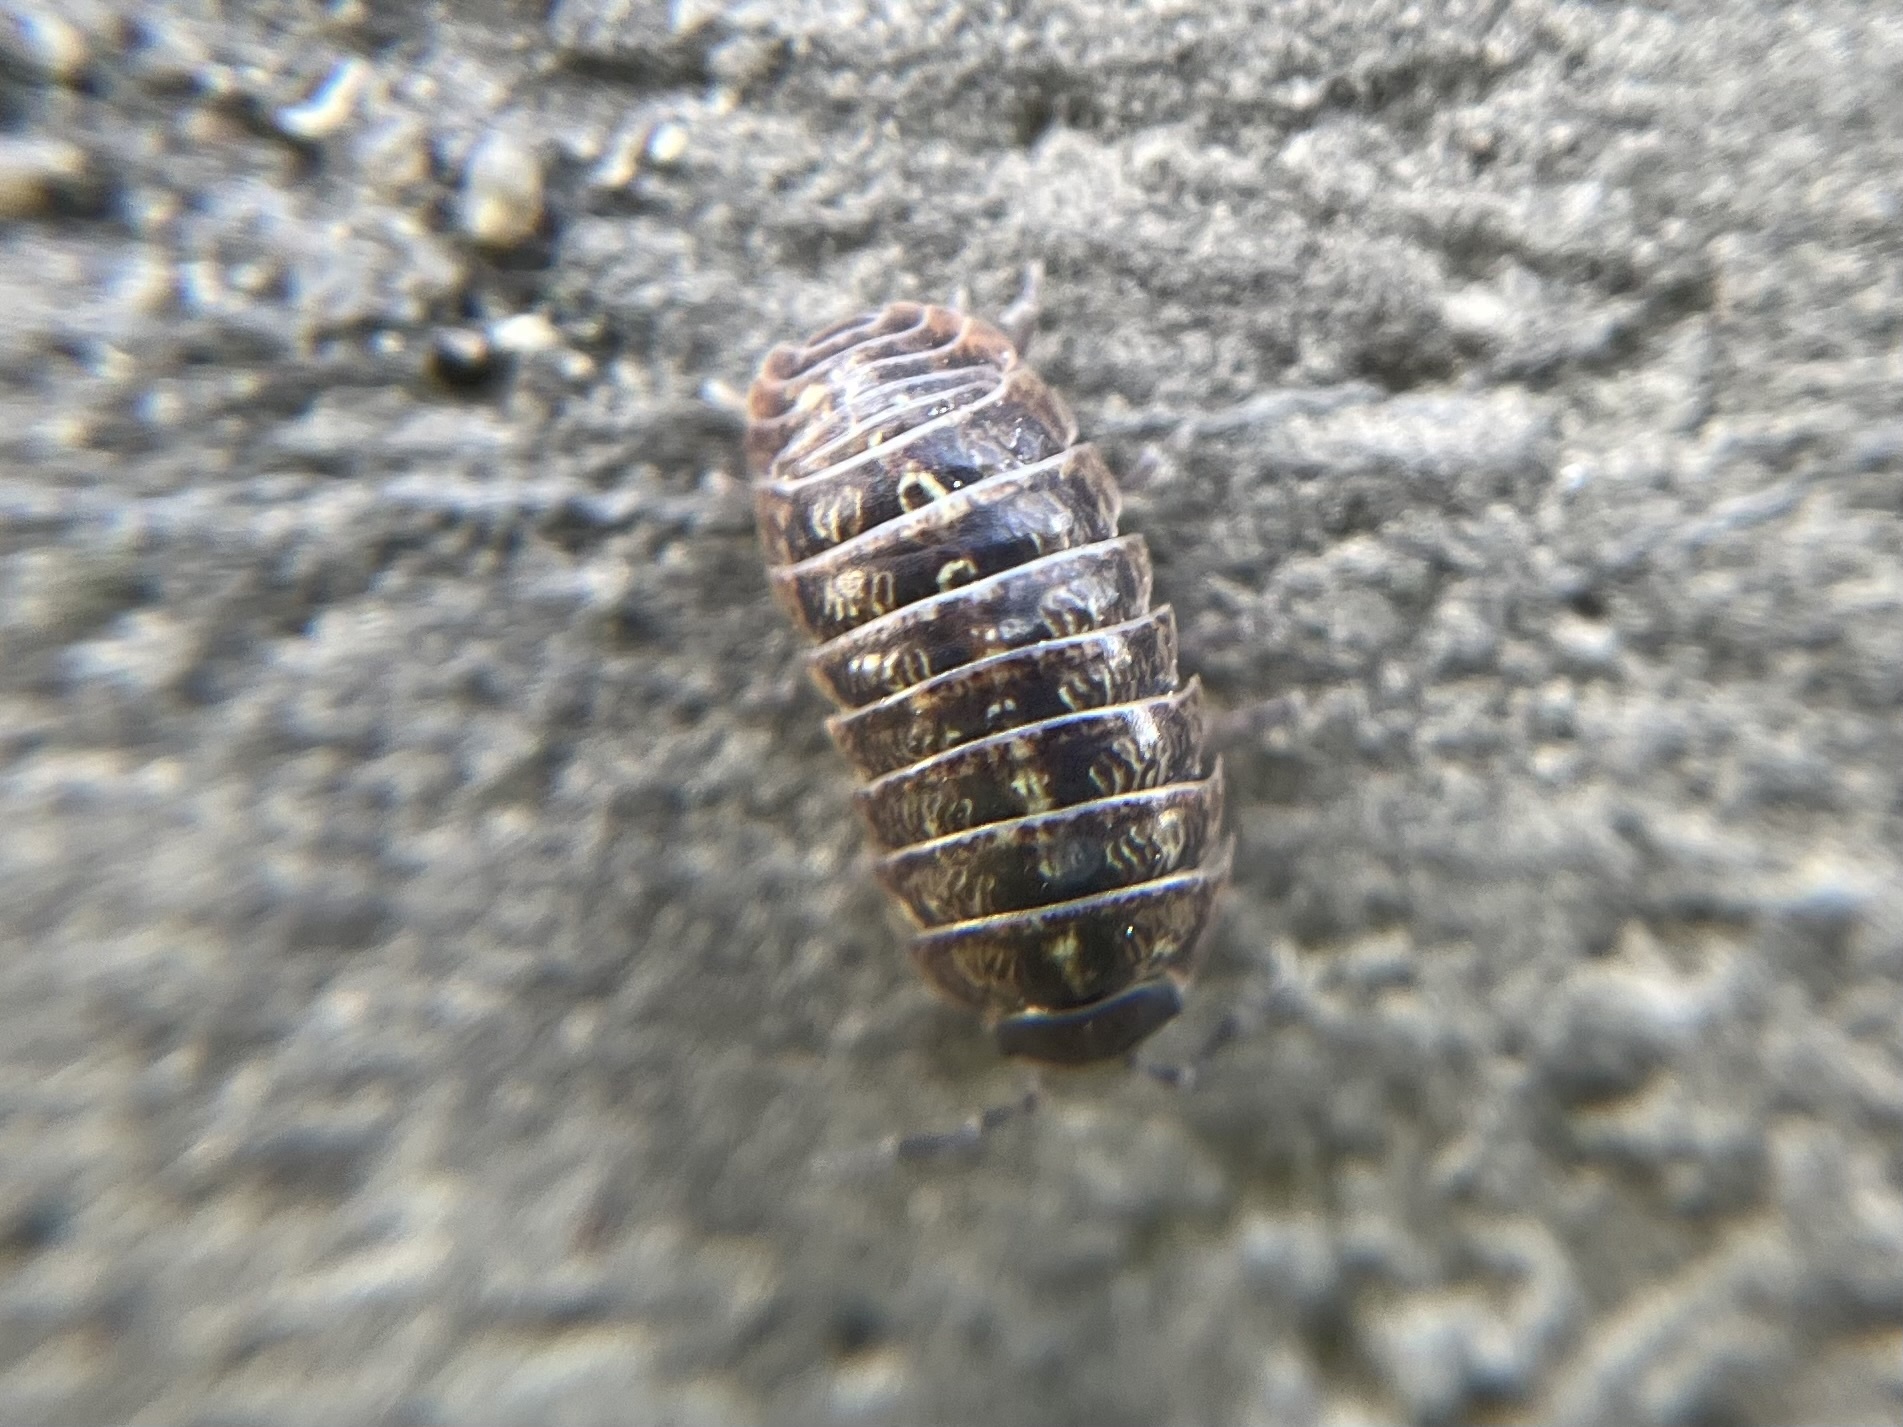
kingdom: Animalia
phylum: Arthropoda
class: Malacostraca
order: Isopoda
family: Armadillidiidae
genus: Armadillidium
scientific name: Armadillidium vulgare
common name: Common pill woodlouse
